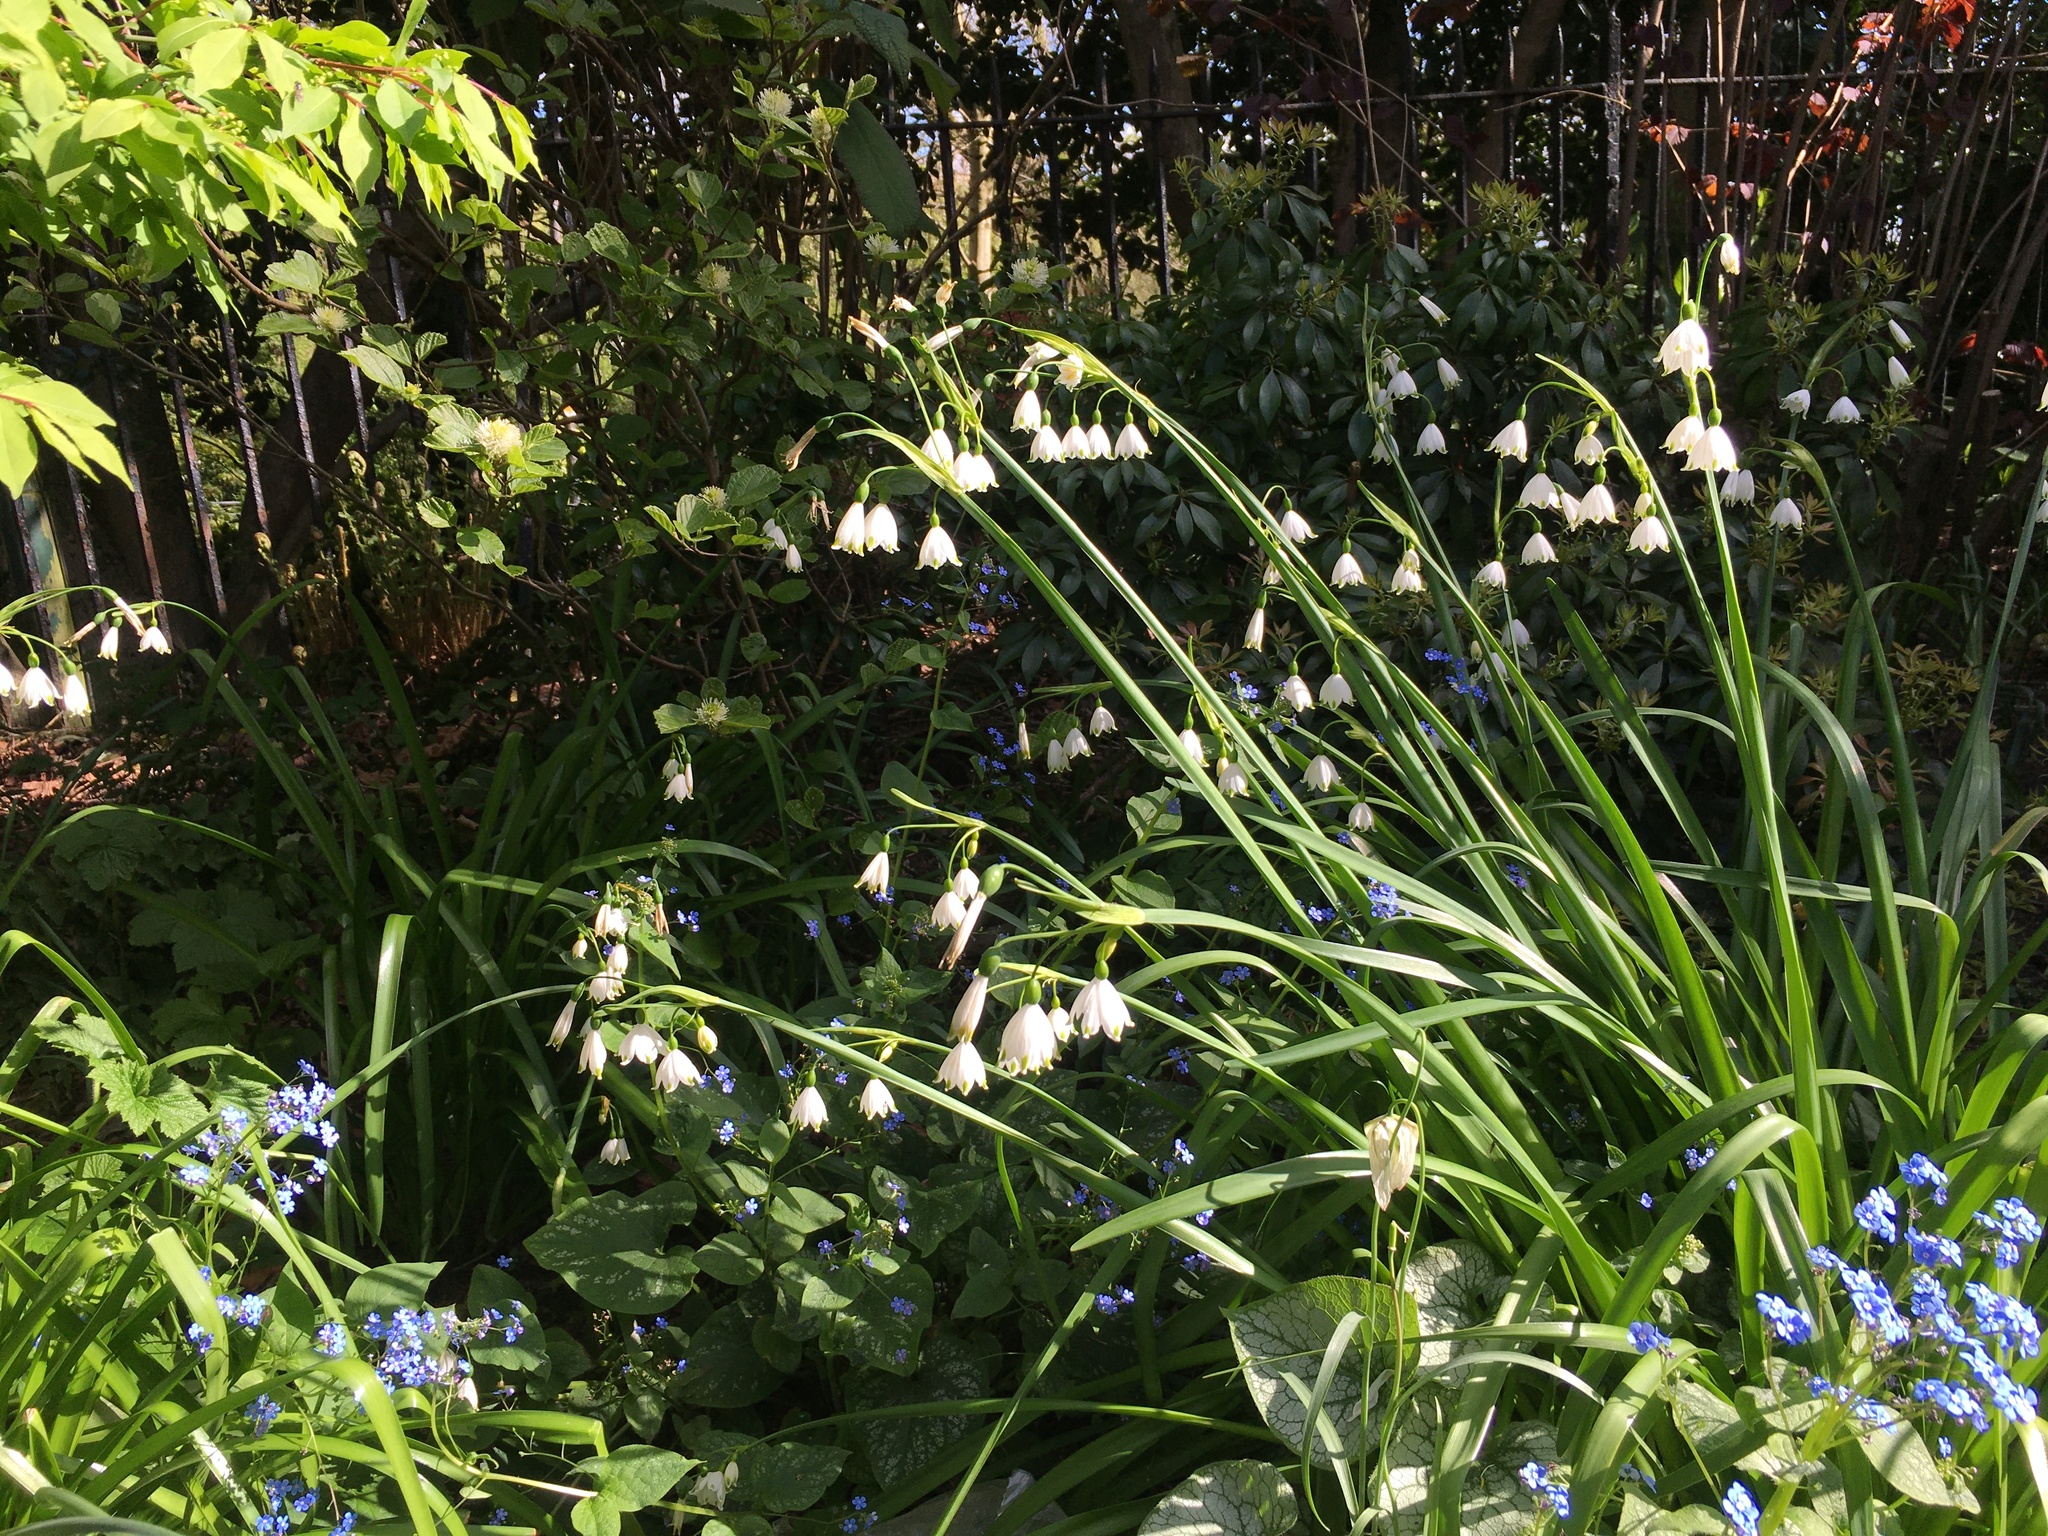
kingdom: Plantae
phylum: Tracheophyta
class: Liliopsida
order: Asparagales
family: Amaryllidaceae
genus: Leucojum
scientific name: Leucojum aestivum
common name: Summer snowflake
